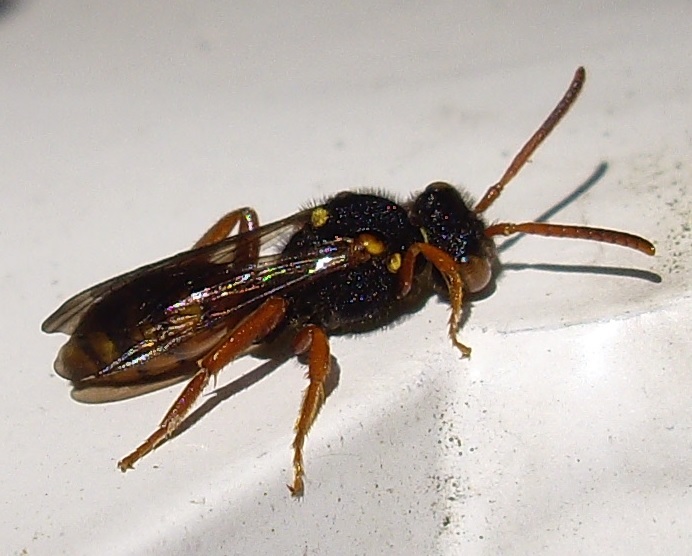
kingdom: Animalia
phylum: Arthropoda
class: Insecta
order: Hymenoptera
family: Apidae
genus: Nomada
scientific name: Nomada
